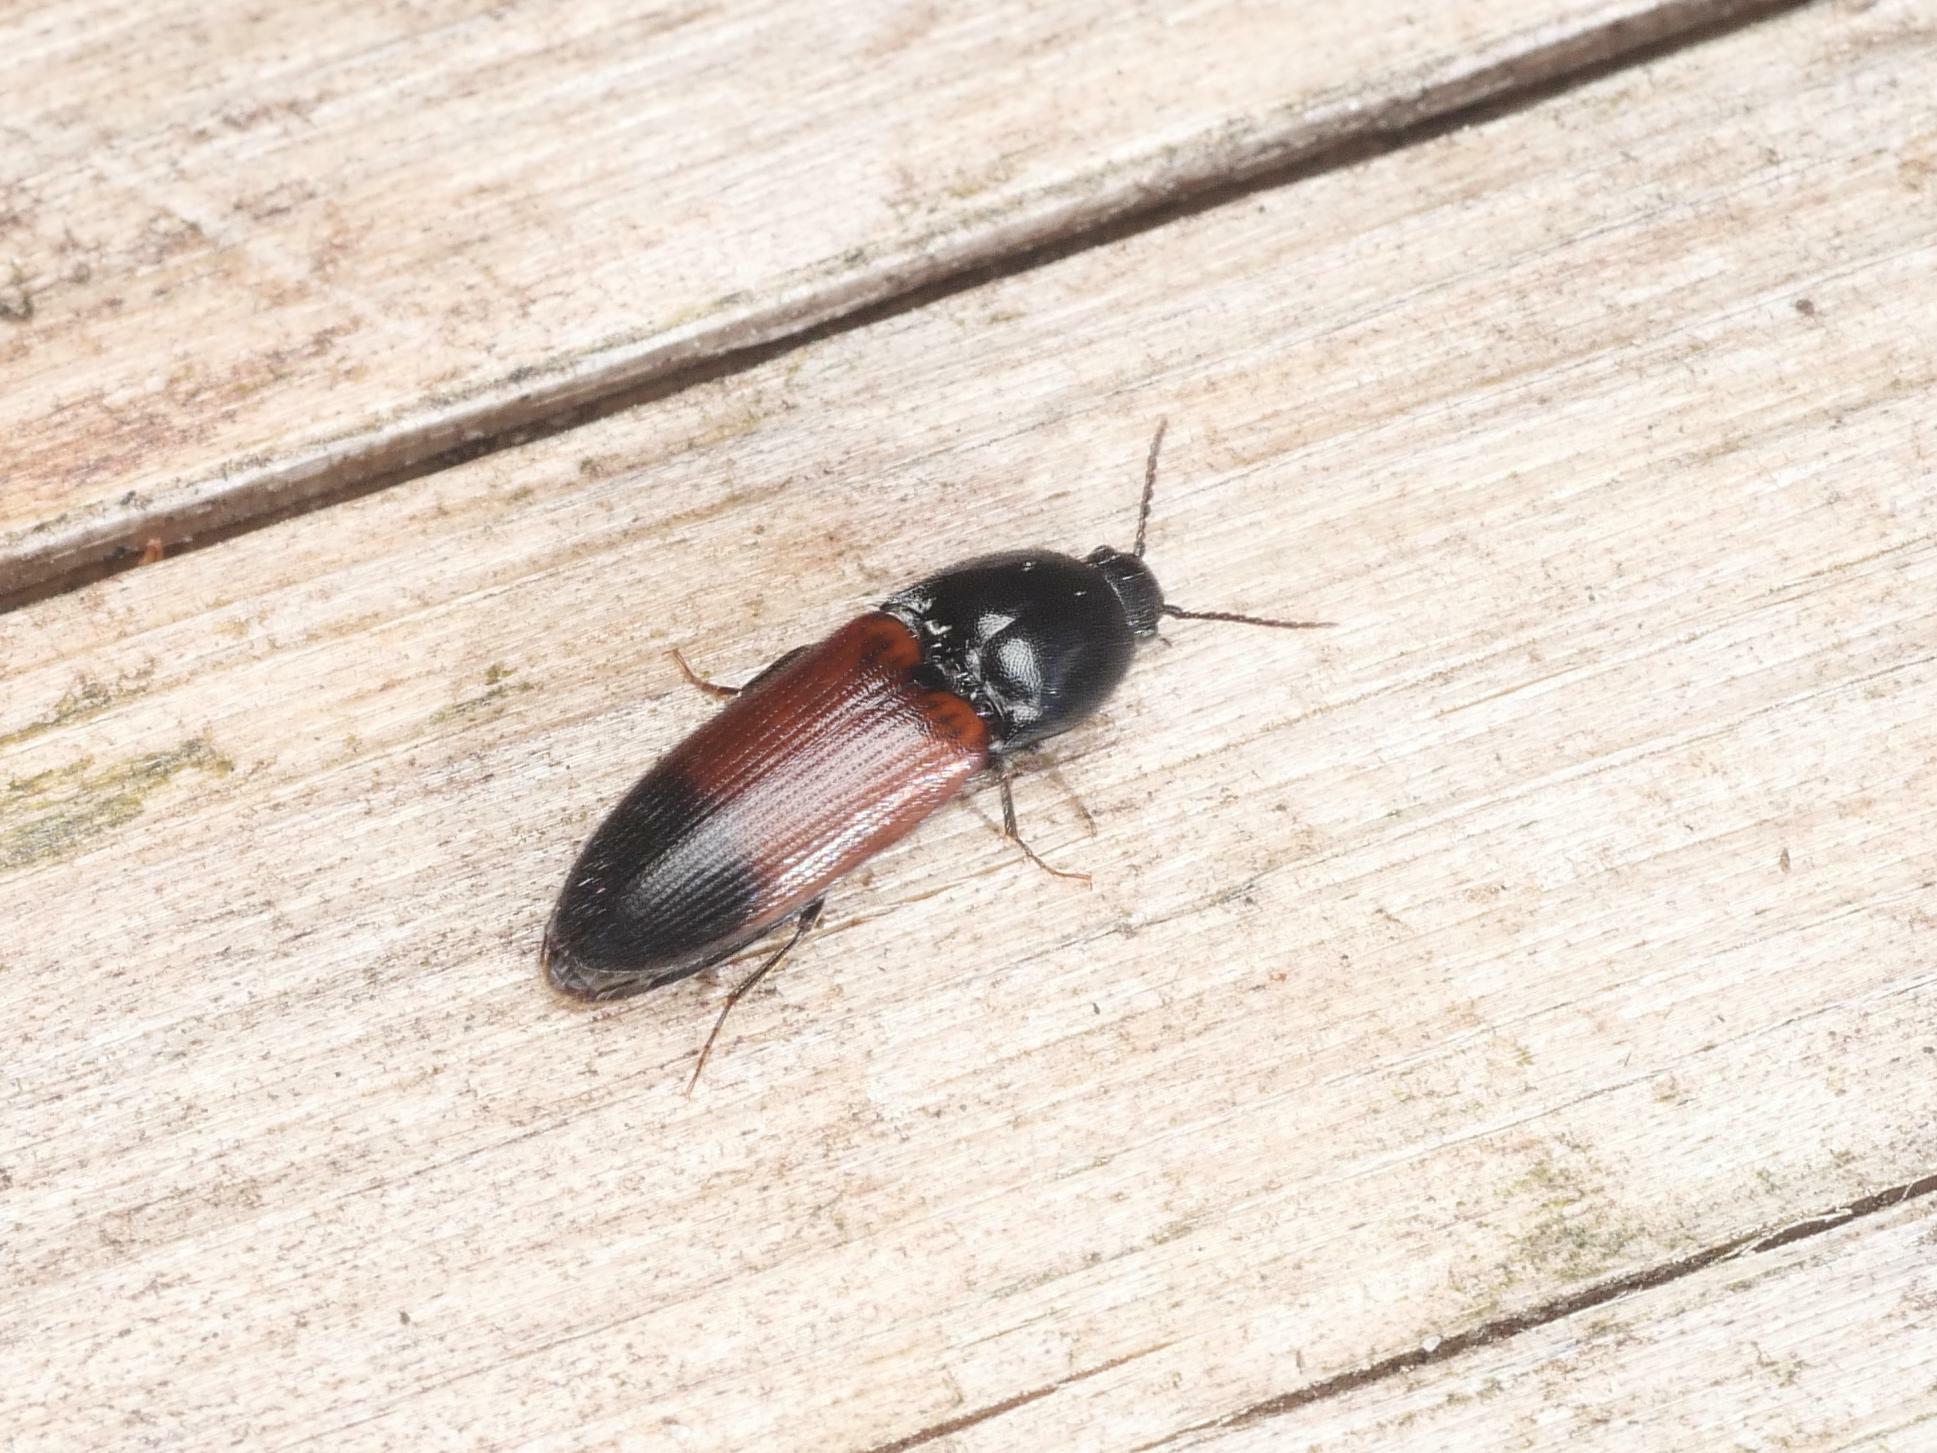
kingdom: Animalia
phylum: Arthropoda
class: Insecta
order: Coleoptera
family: Elateridae
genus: Ampedus
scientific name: Ampedus balteatus
